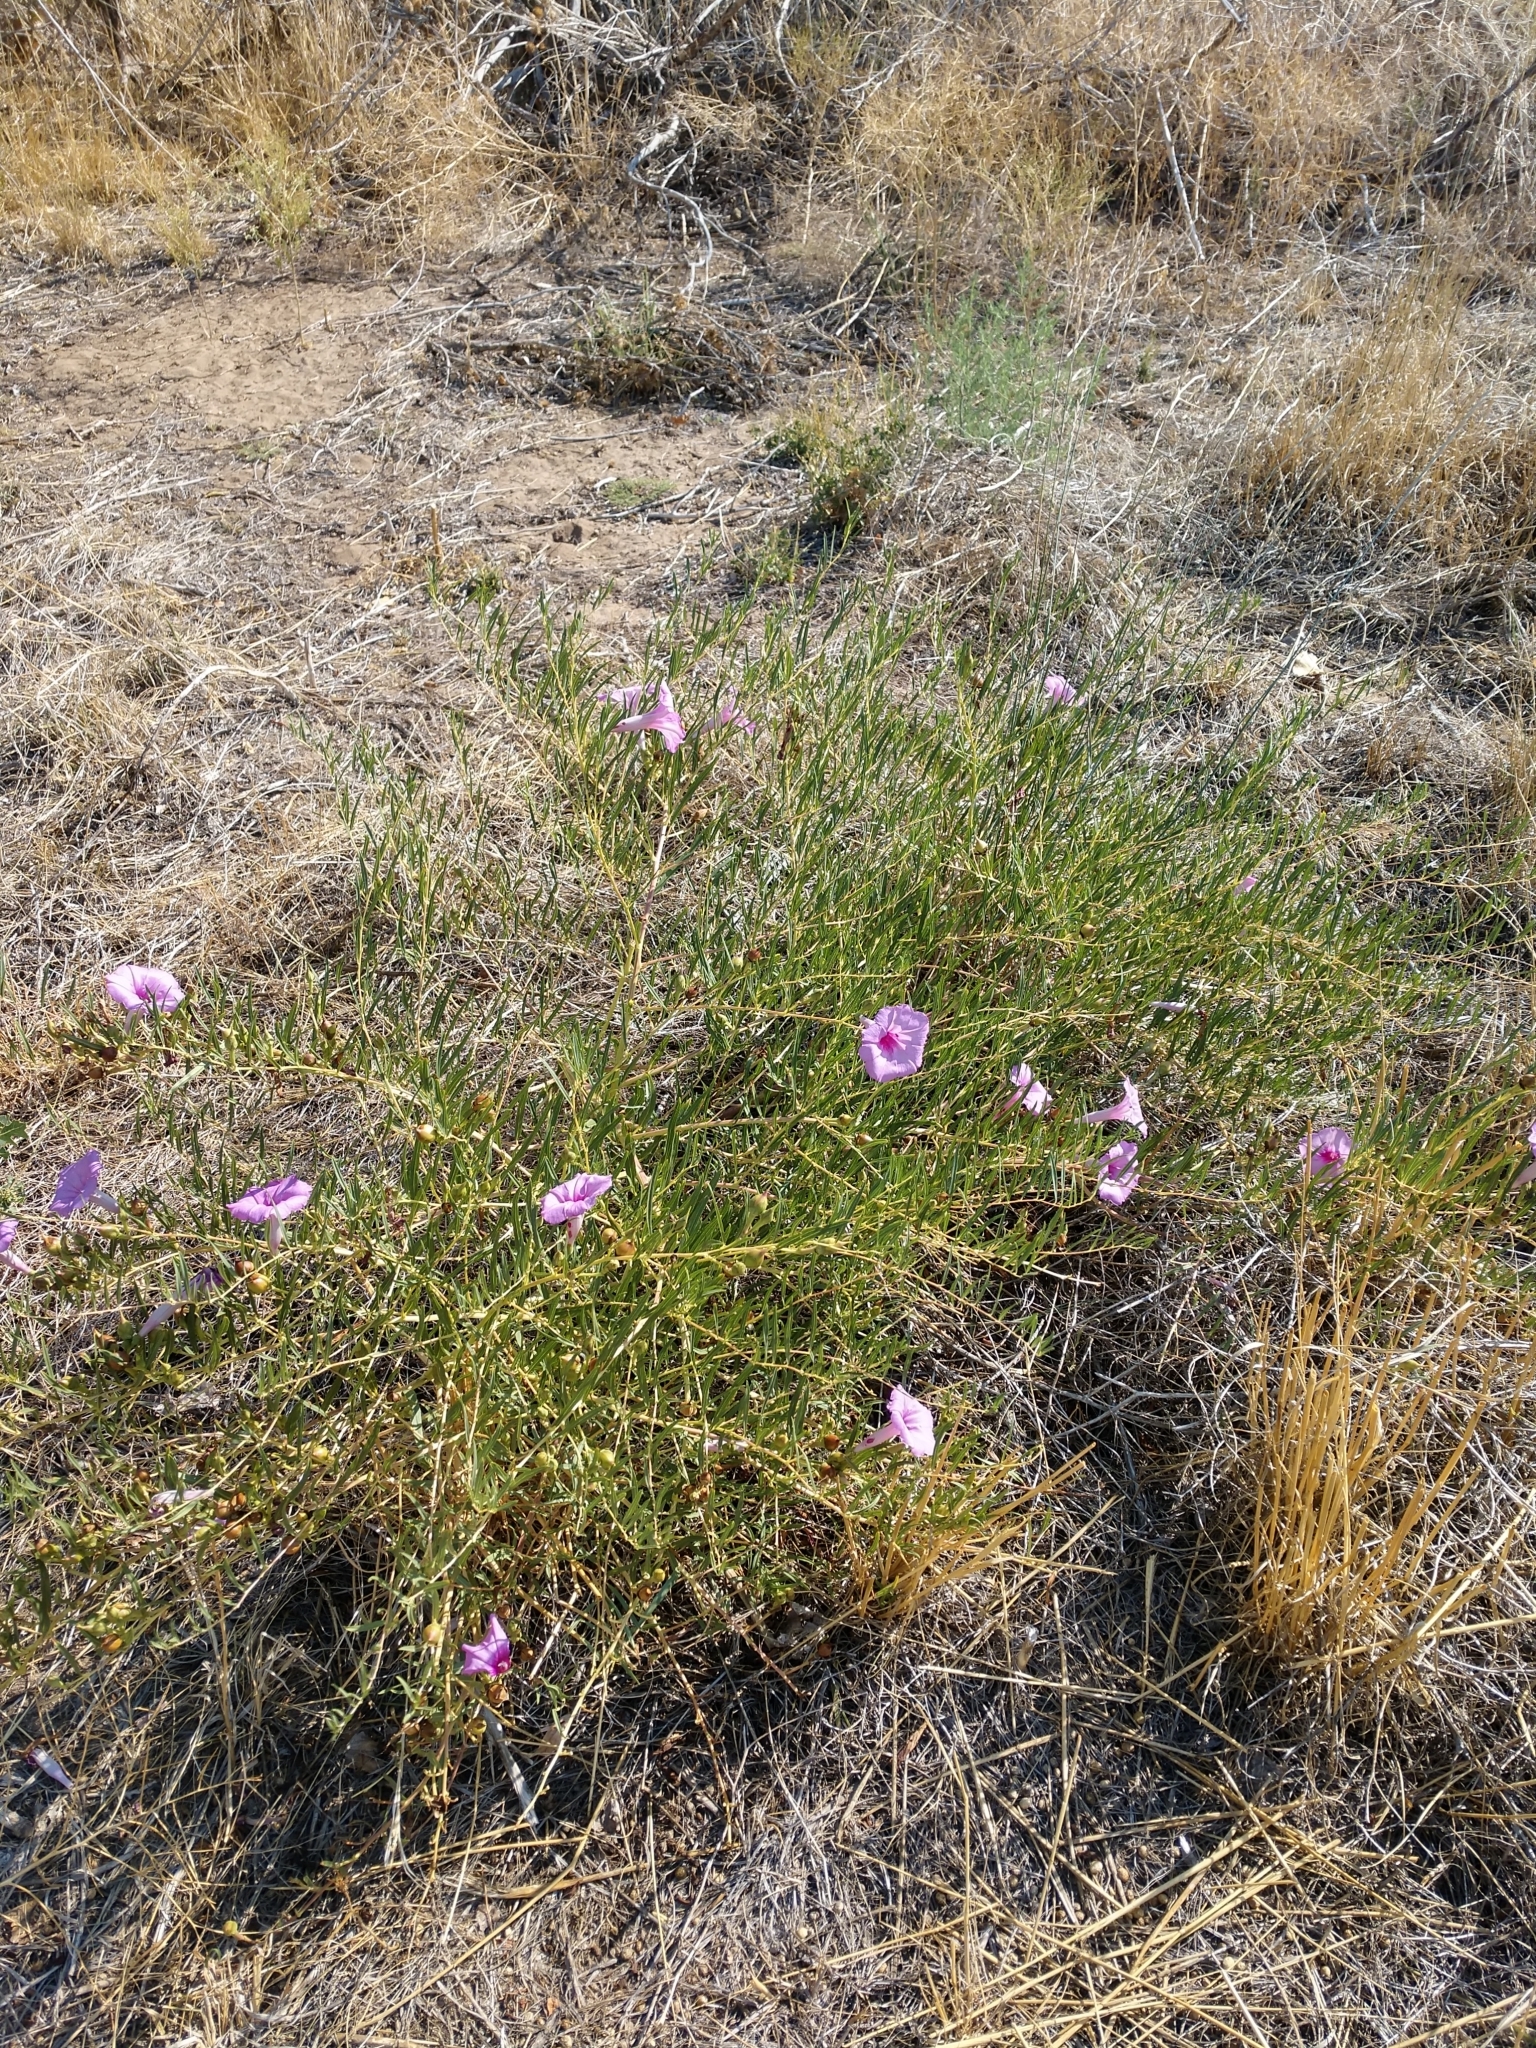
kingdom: Plantae
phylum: Tracheophyta
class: Magnoliopsida
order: Solanales
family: Convolvulaceae
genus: Ipomoea
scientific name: Ipomoea leptophylla
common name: Bush moonflower
